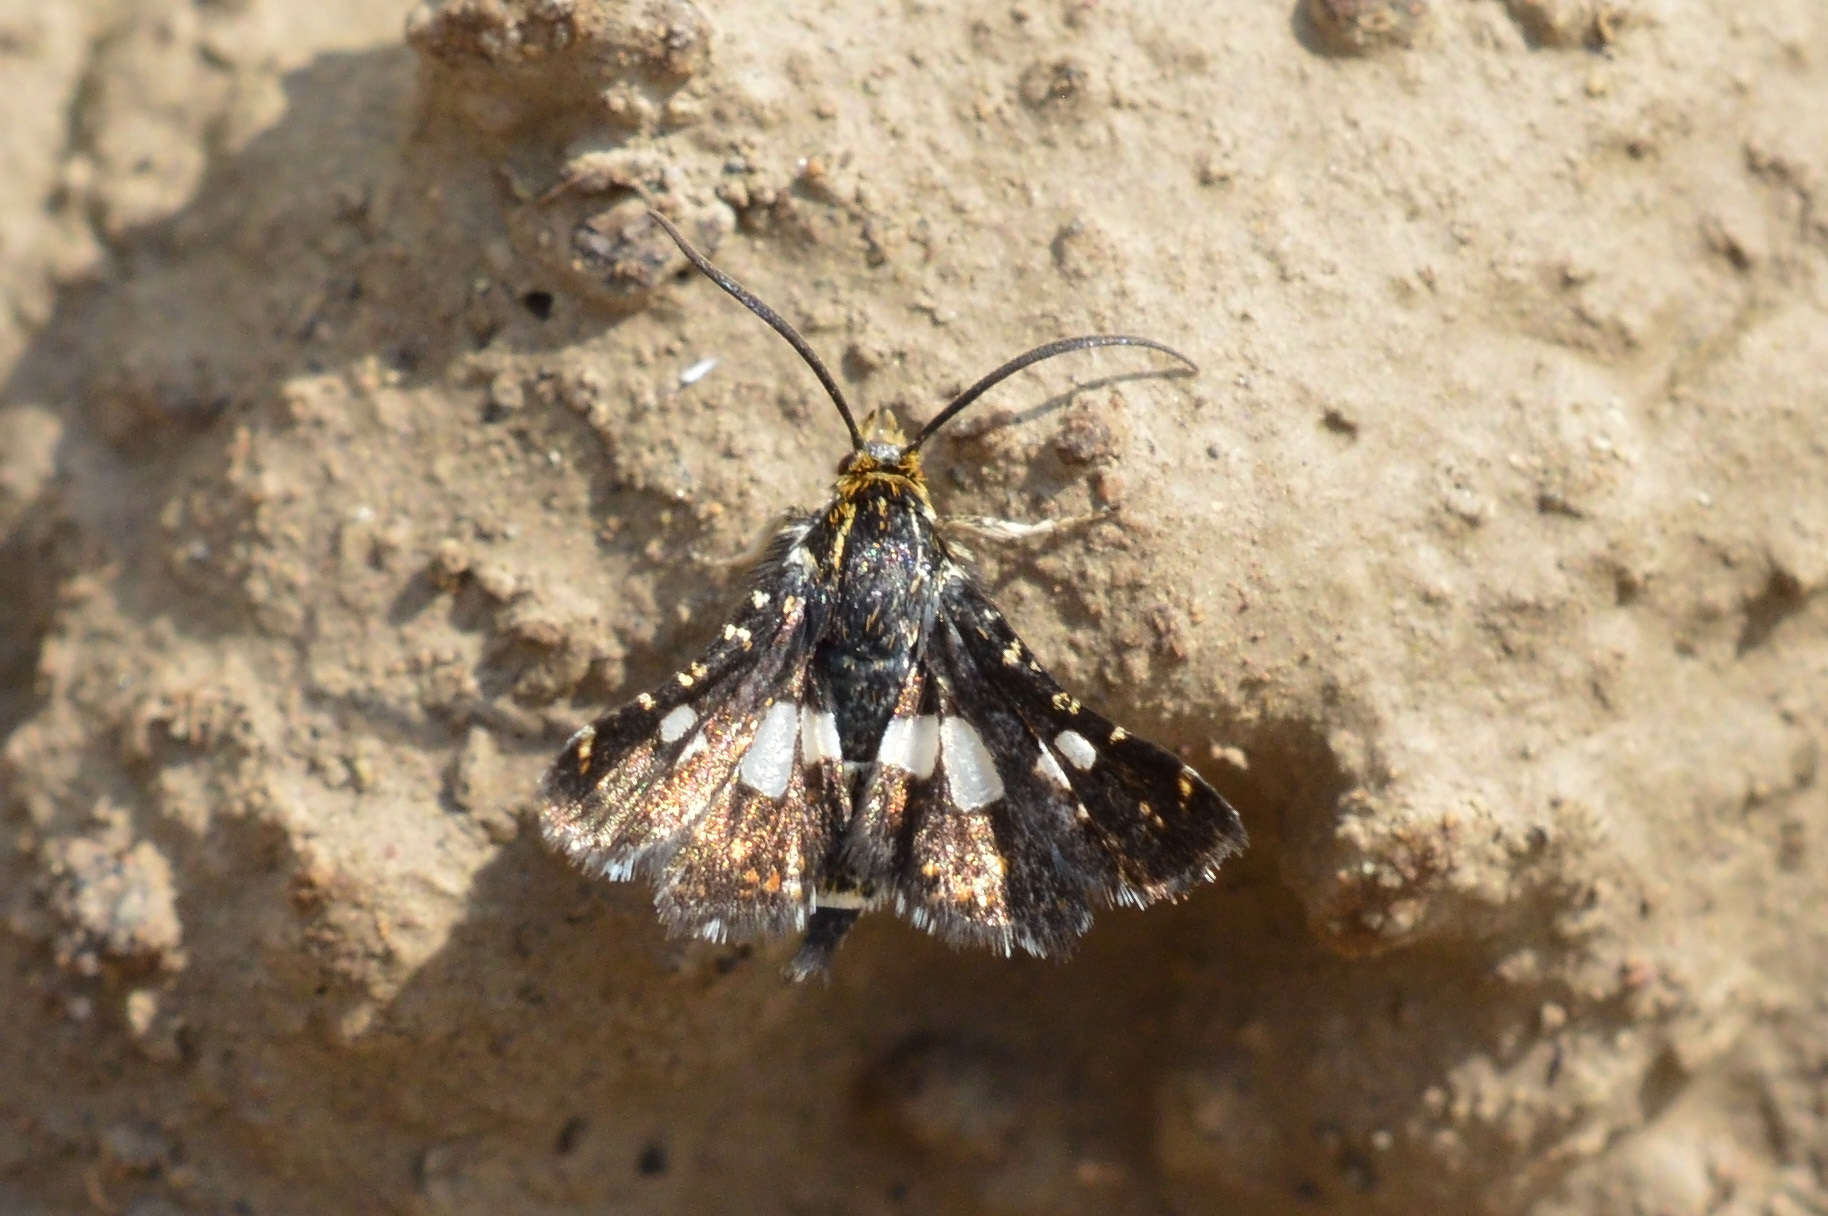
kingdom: Animalia
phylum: Arthropoda
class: Insecta
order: Lepidoptera
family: Thyrididae
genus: Thyris
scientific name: Thyris fenestrella
